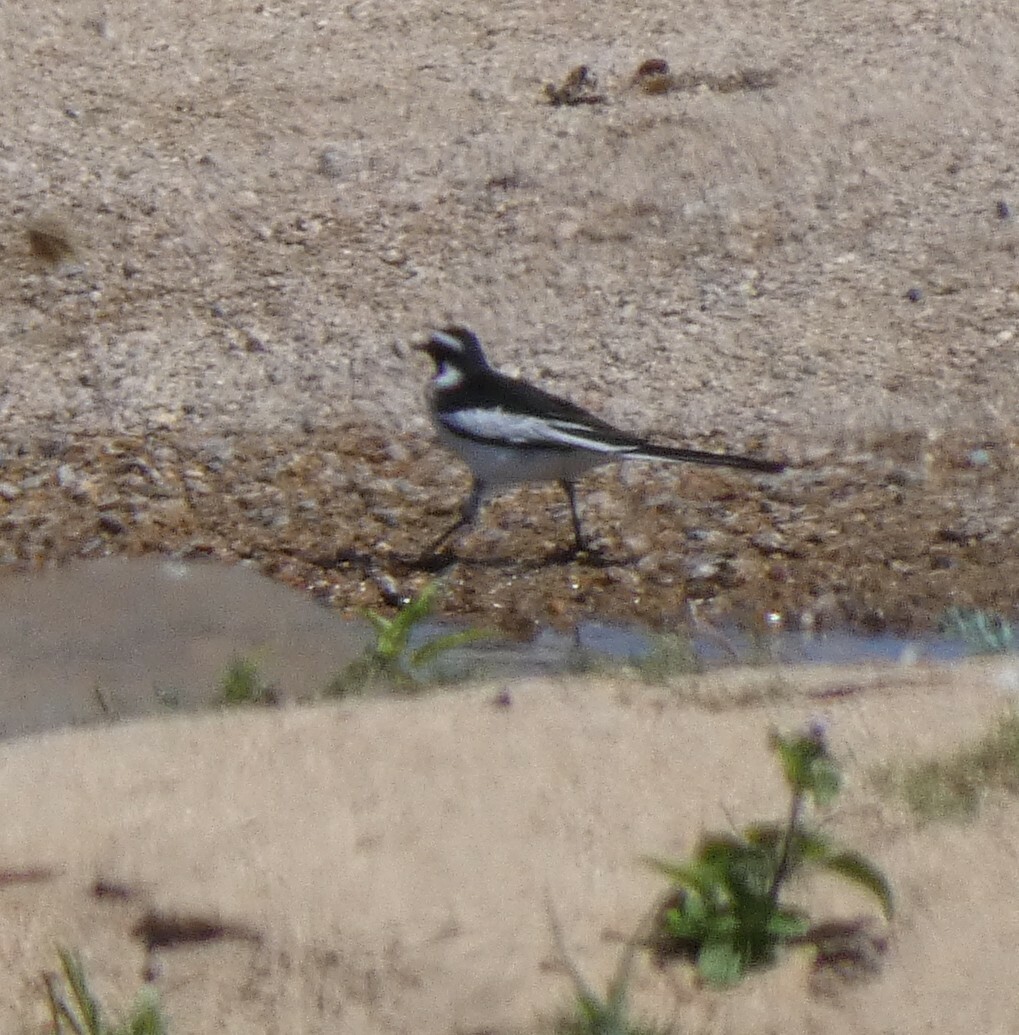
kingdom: Animalia
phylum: Chordata
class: Aves
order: Passeriformes
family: Motacillidae
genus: Motacilla
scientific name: Motacilla aguimp
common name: African pied wagtail
